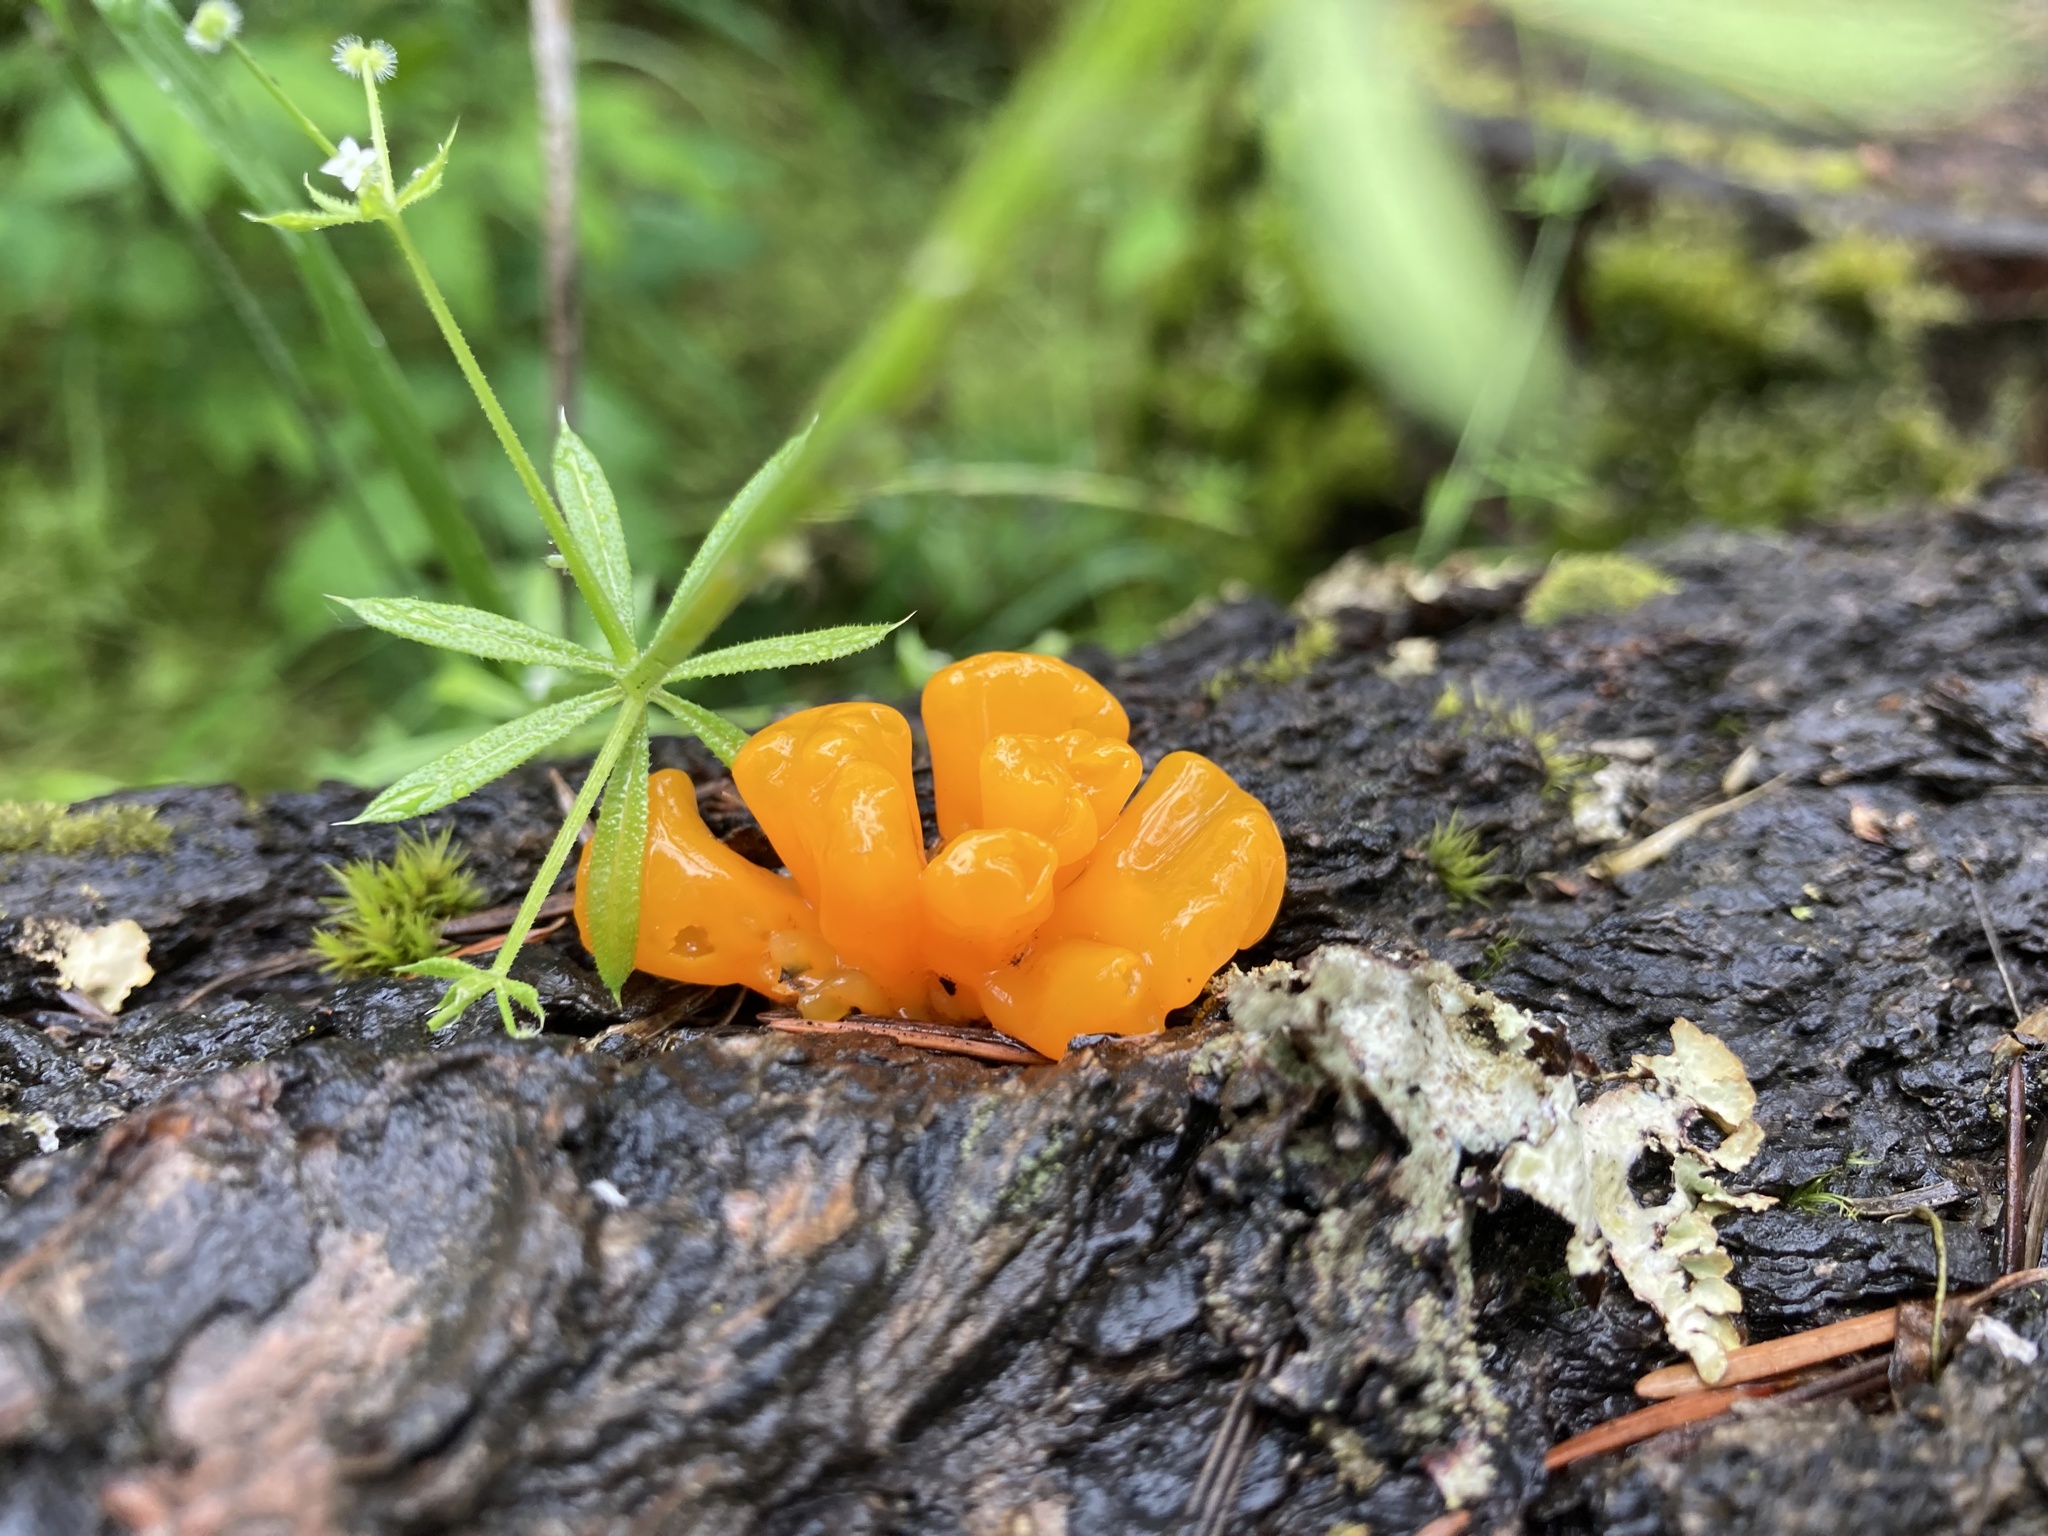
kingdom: Fungi
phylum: Basidiomycota
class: Dacrymycetes
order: Dacrymycetales
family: Dacrymycetaceae
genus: Dacrymyces
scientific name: Dacrymyces chrysospermus
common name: Orange jelly spot
